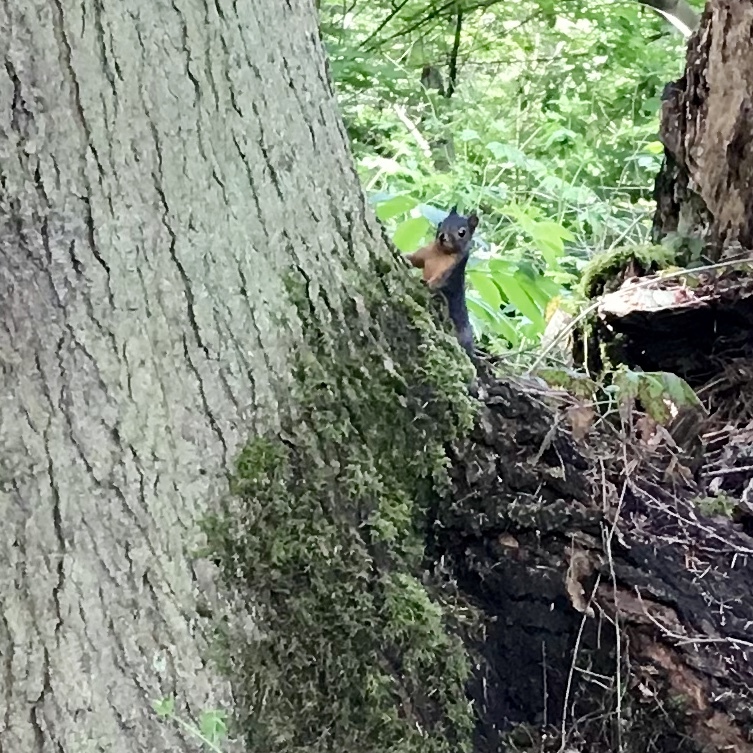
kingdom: Animalia
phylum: Chordata
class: Mammalia
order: Rodentia
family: Sciuridae
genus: Tamiasciurus
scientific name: Tamiasciurus douglasii
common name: Douglas's squirrel
